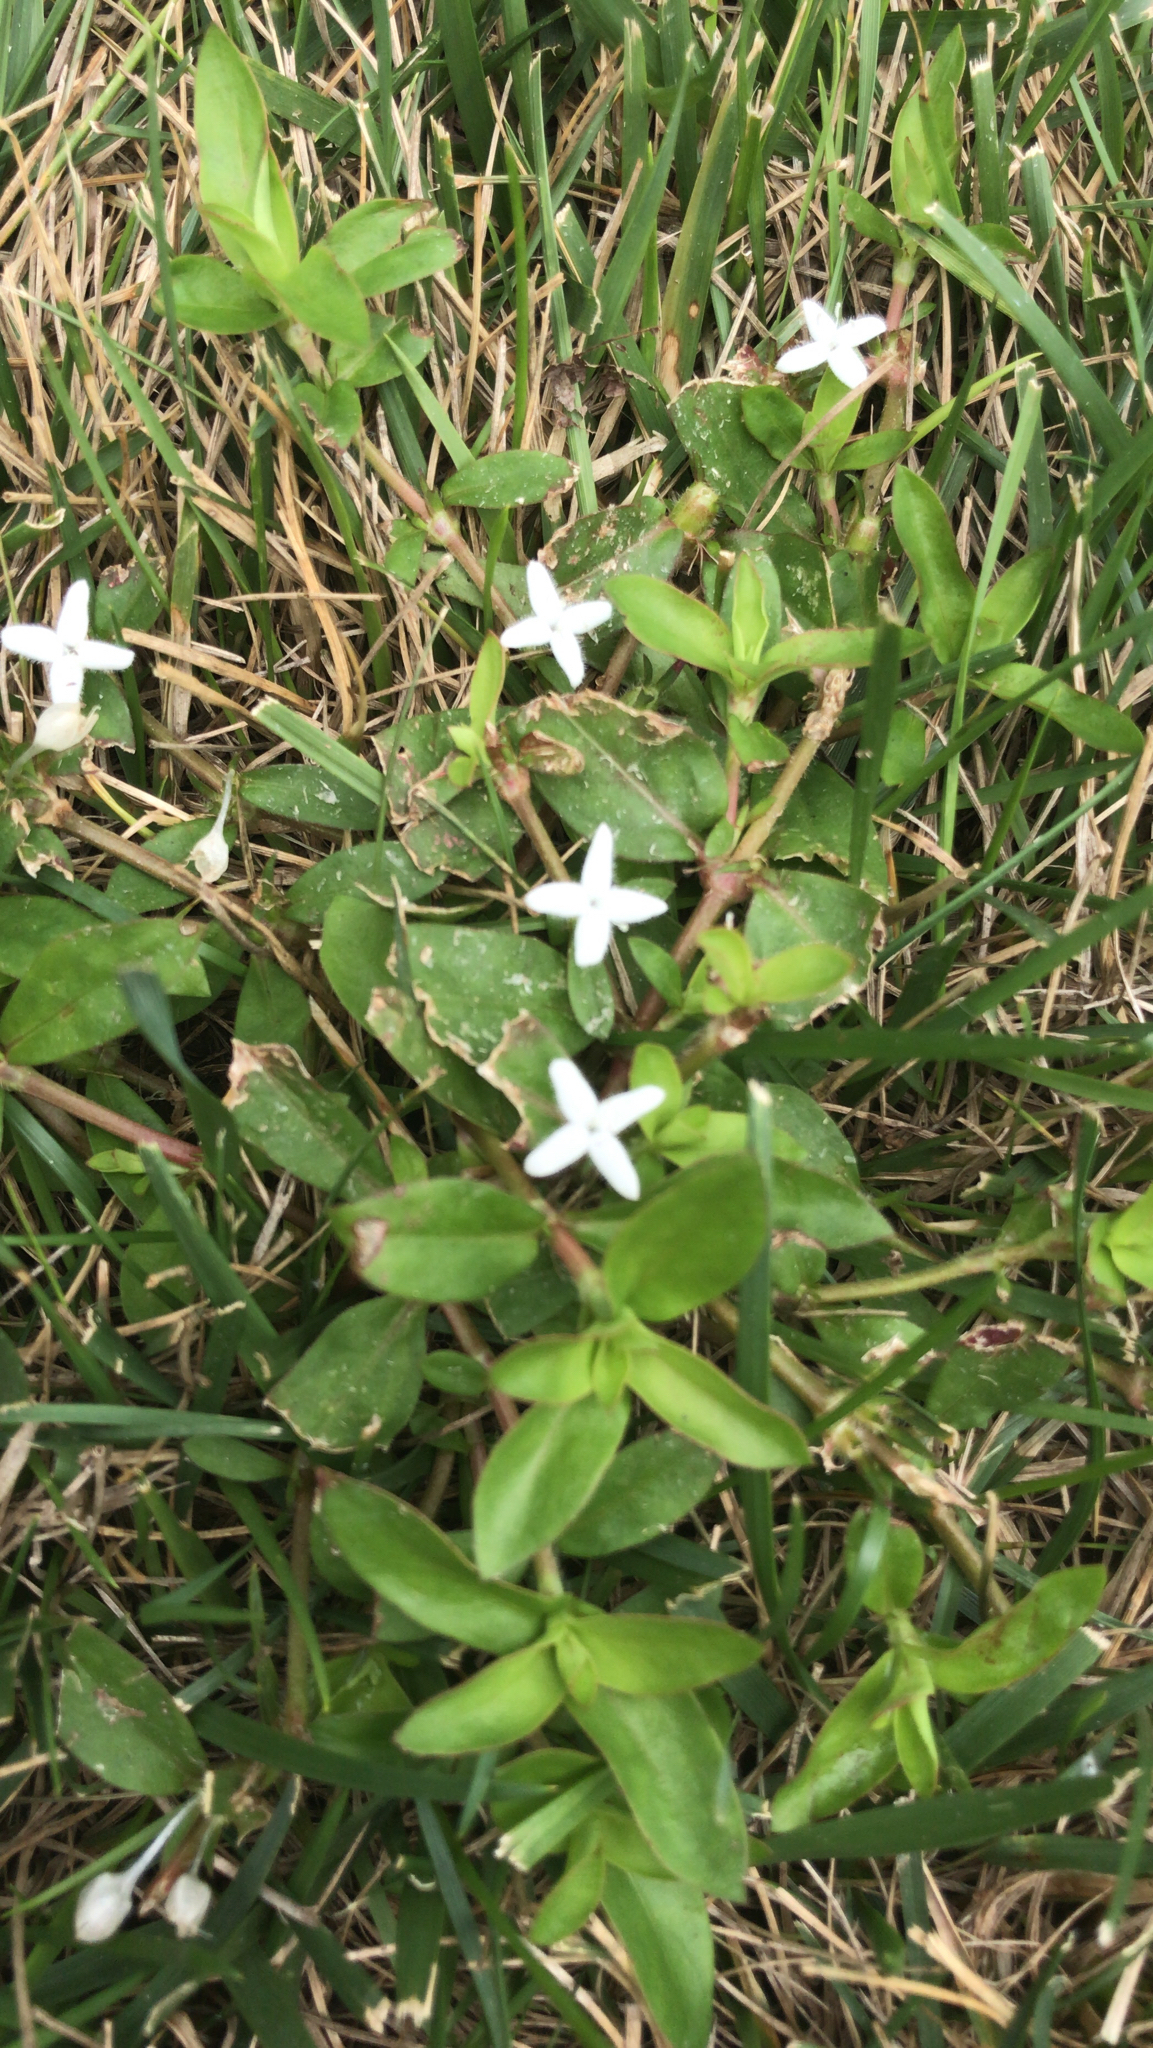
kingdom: Plantae
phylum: Tracheophyta
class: Magnoliopsida
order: Gentianales
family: Rubiaceae
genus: Diodia
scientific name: Diodia virginiana
